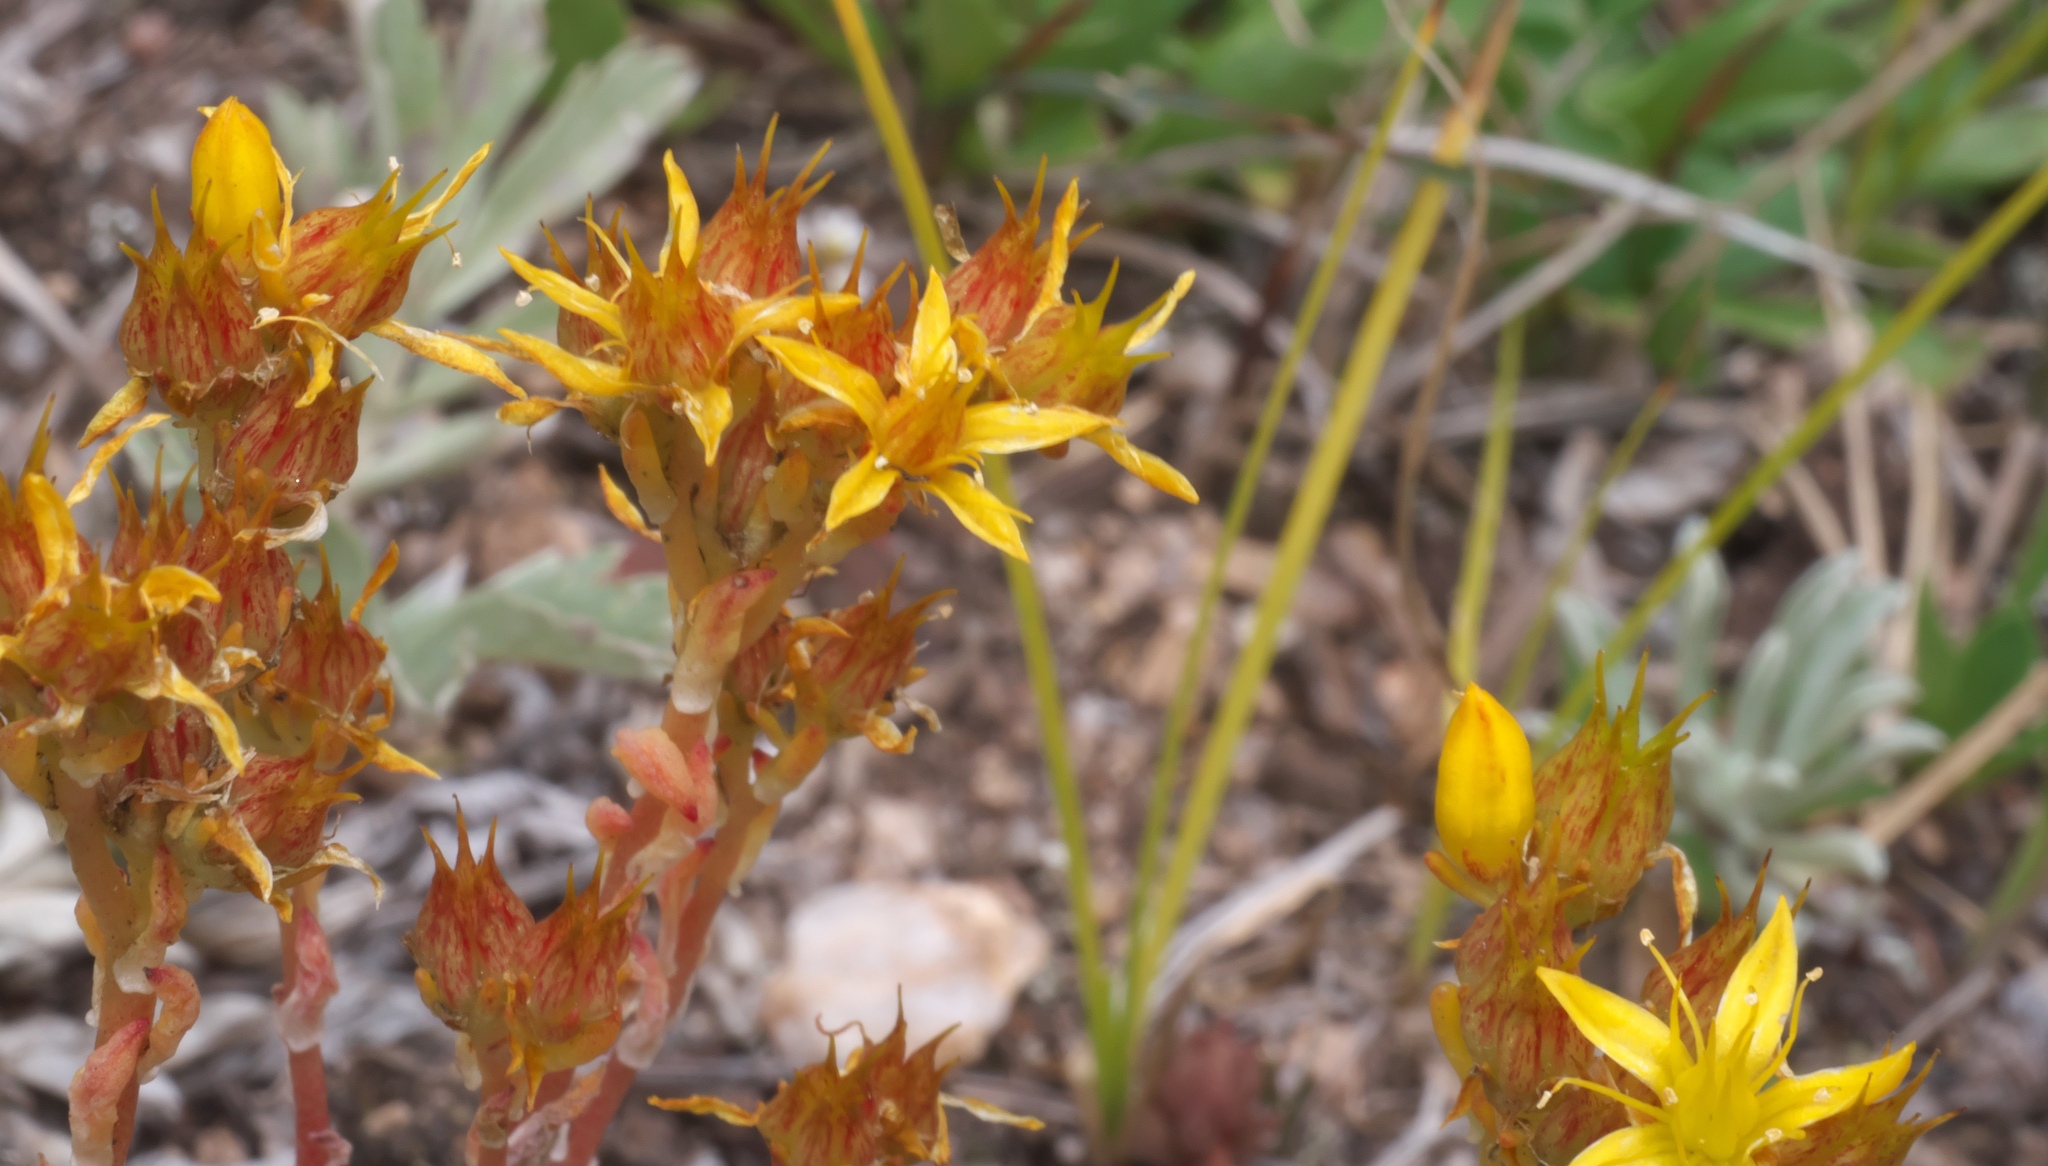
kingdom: Plantae
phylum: Tracheophyta
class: Magnoliopsida
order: Saxifragales
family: Crassulaceae
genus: Sedum
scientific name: Sedum lanceolatum
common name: Common stonecrop
